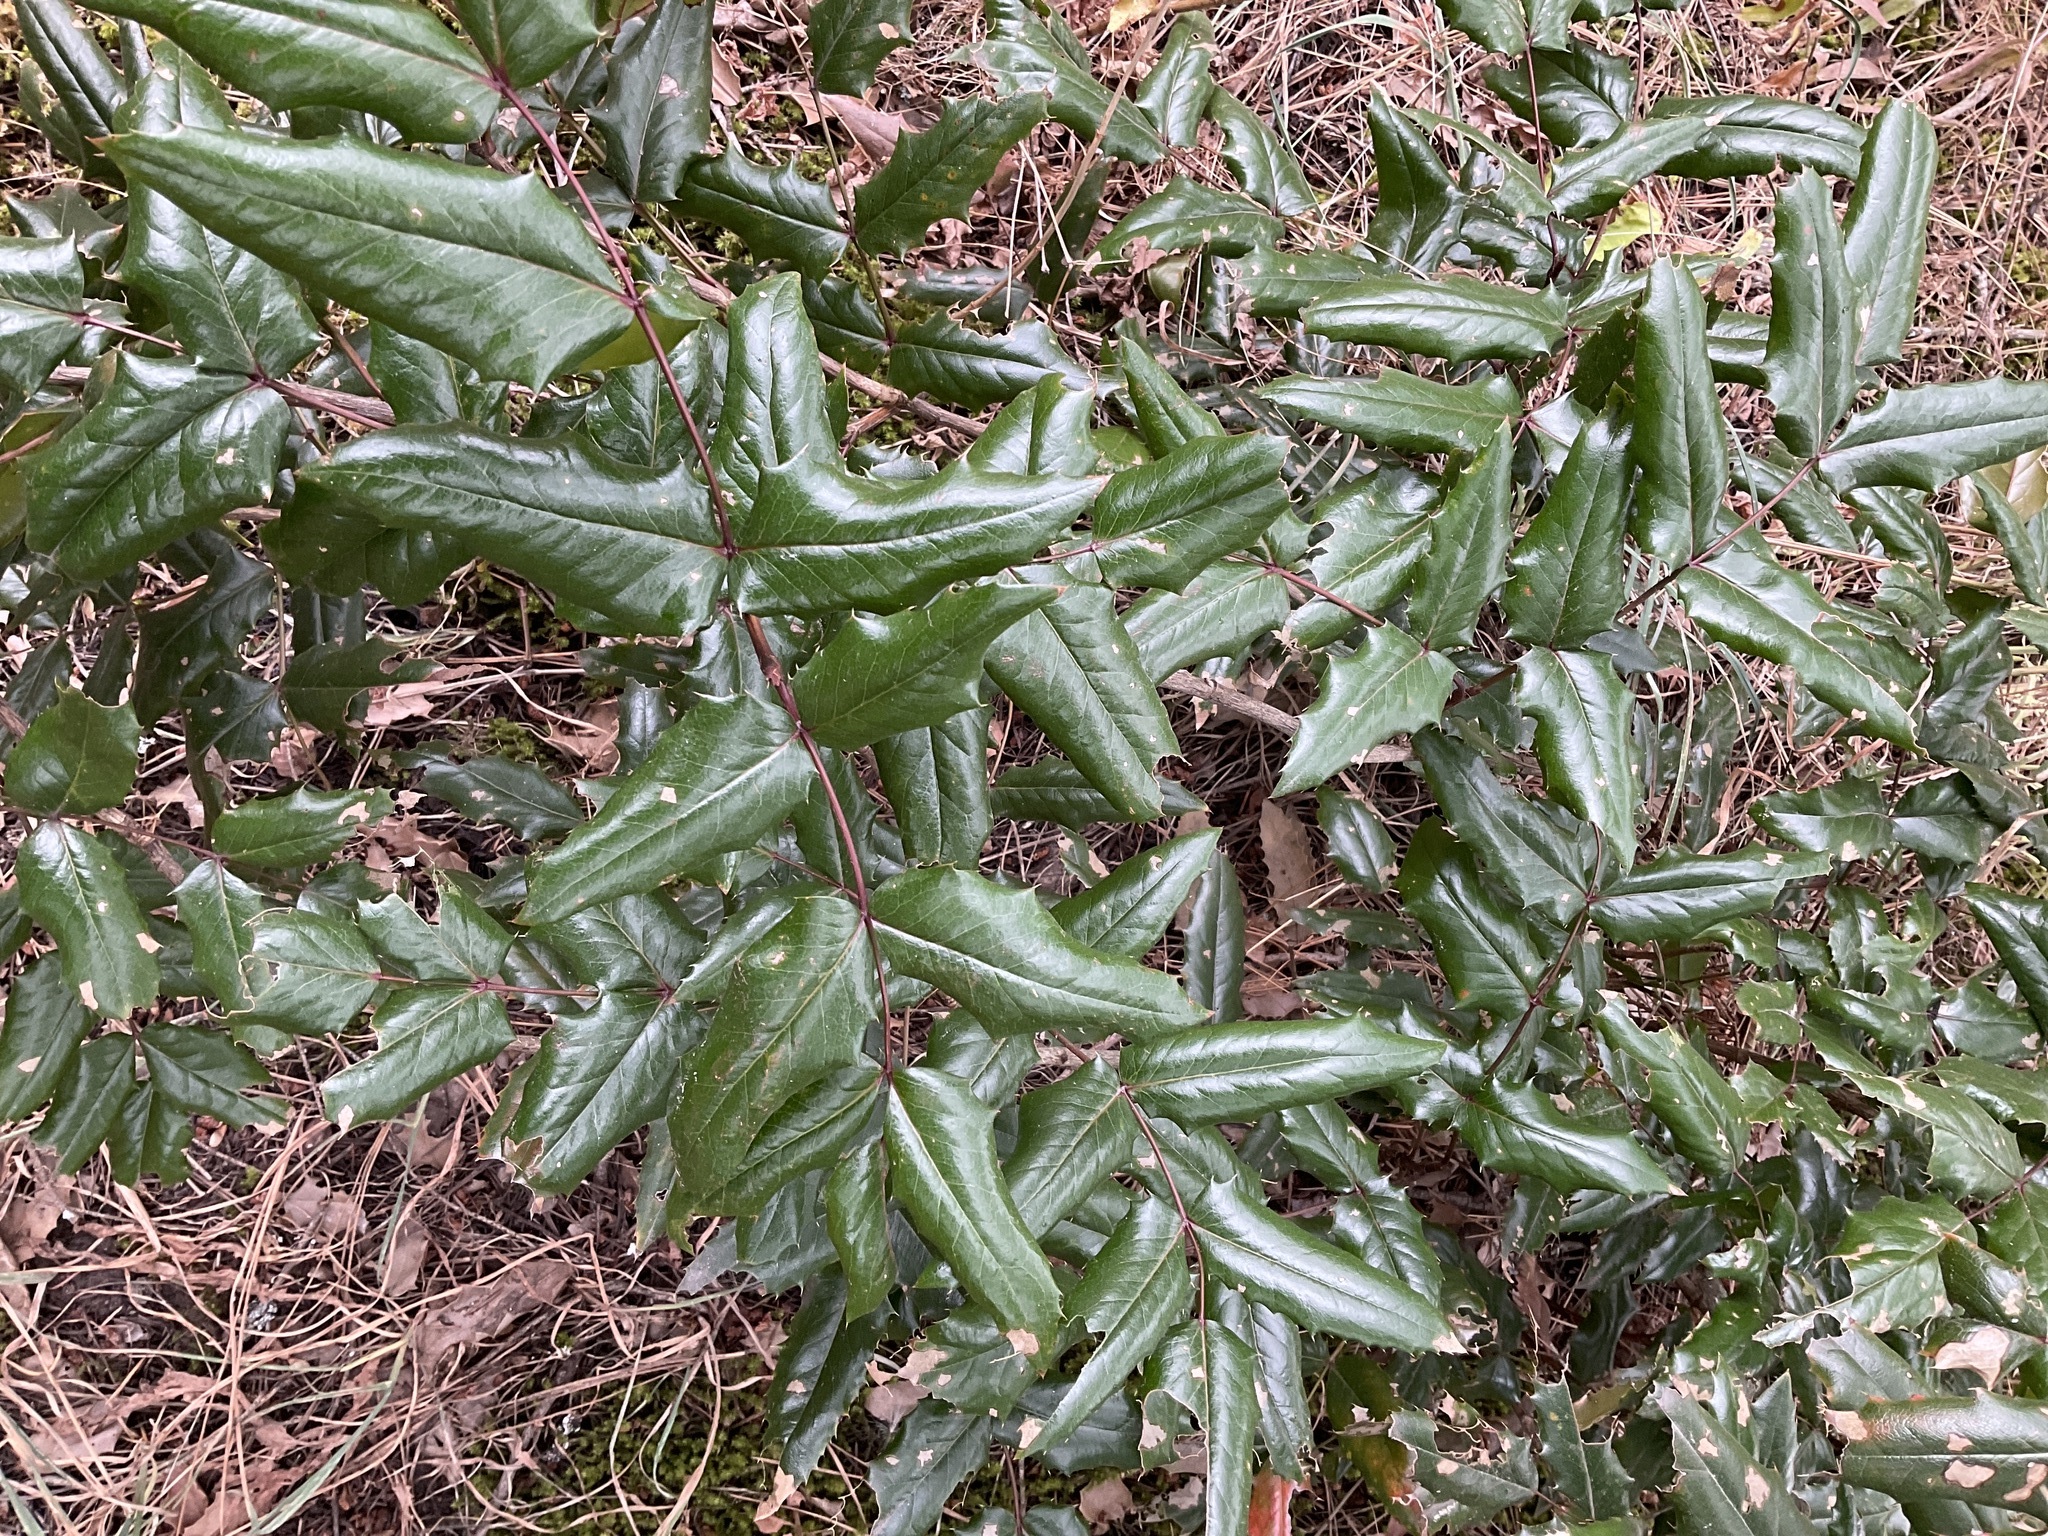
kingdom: Plantae
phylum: Tracheophyta
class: Magnoliopsida
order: Ranunculales
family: Berberidaceae
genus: Mahonia
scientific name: Mahonia aquifolium
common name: Oregon-grape
